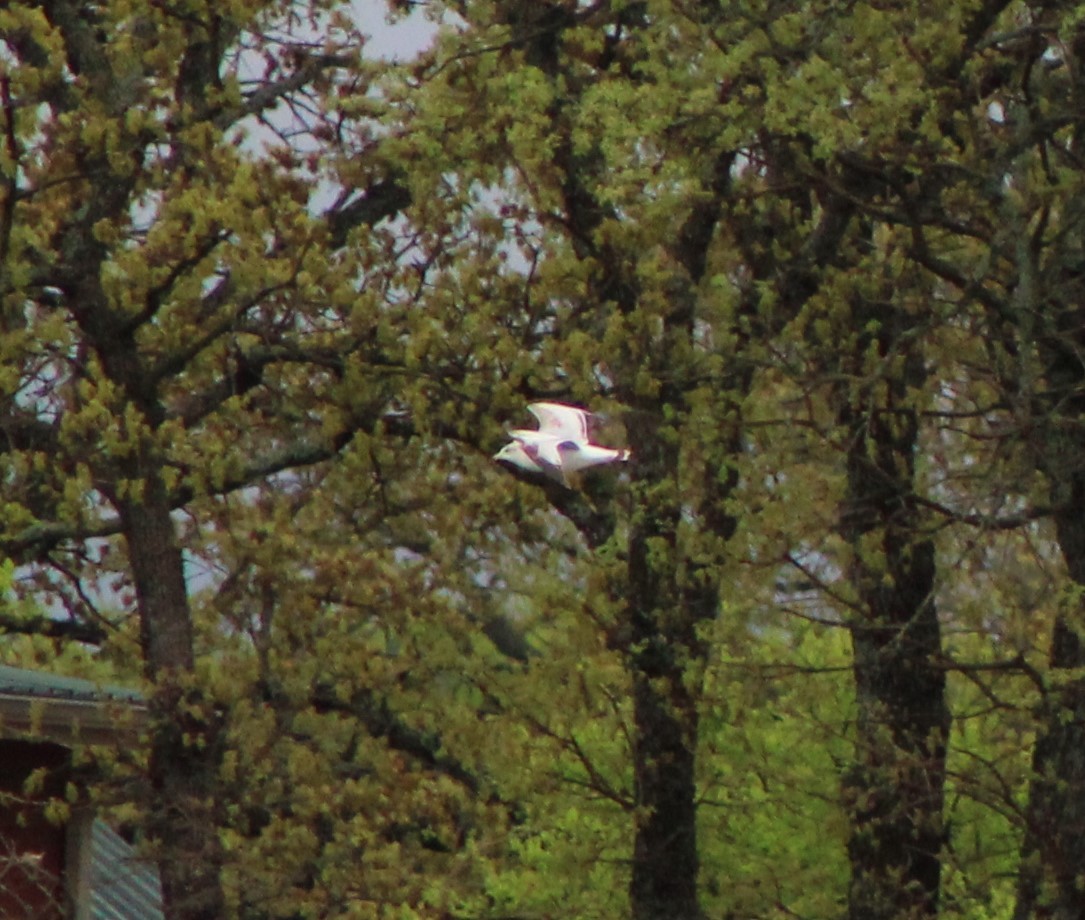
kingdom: Animalia
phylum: Chordata
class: Aves
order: Charadriiformes
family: Laridae
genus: Larus
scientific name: Larus delawarensis
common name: Ring-billed gull
